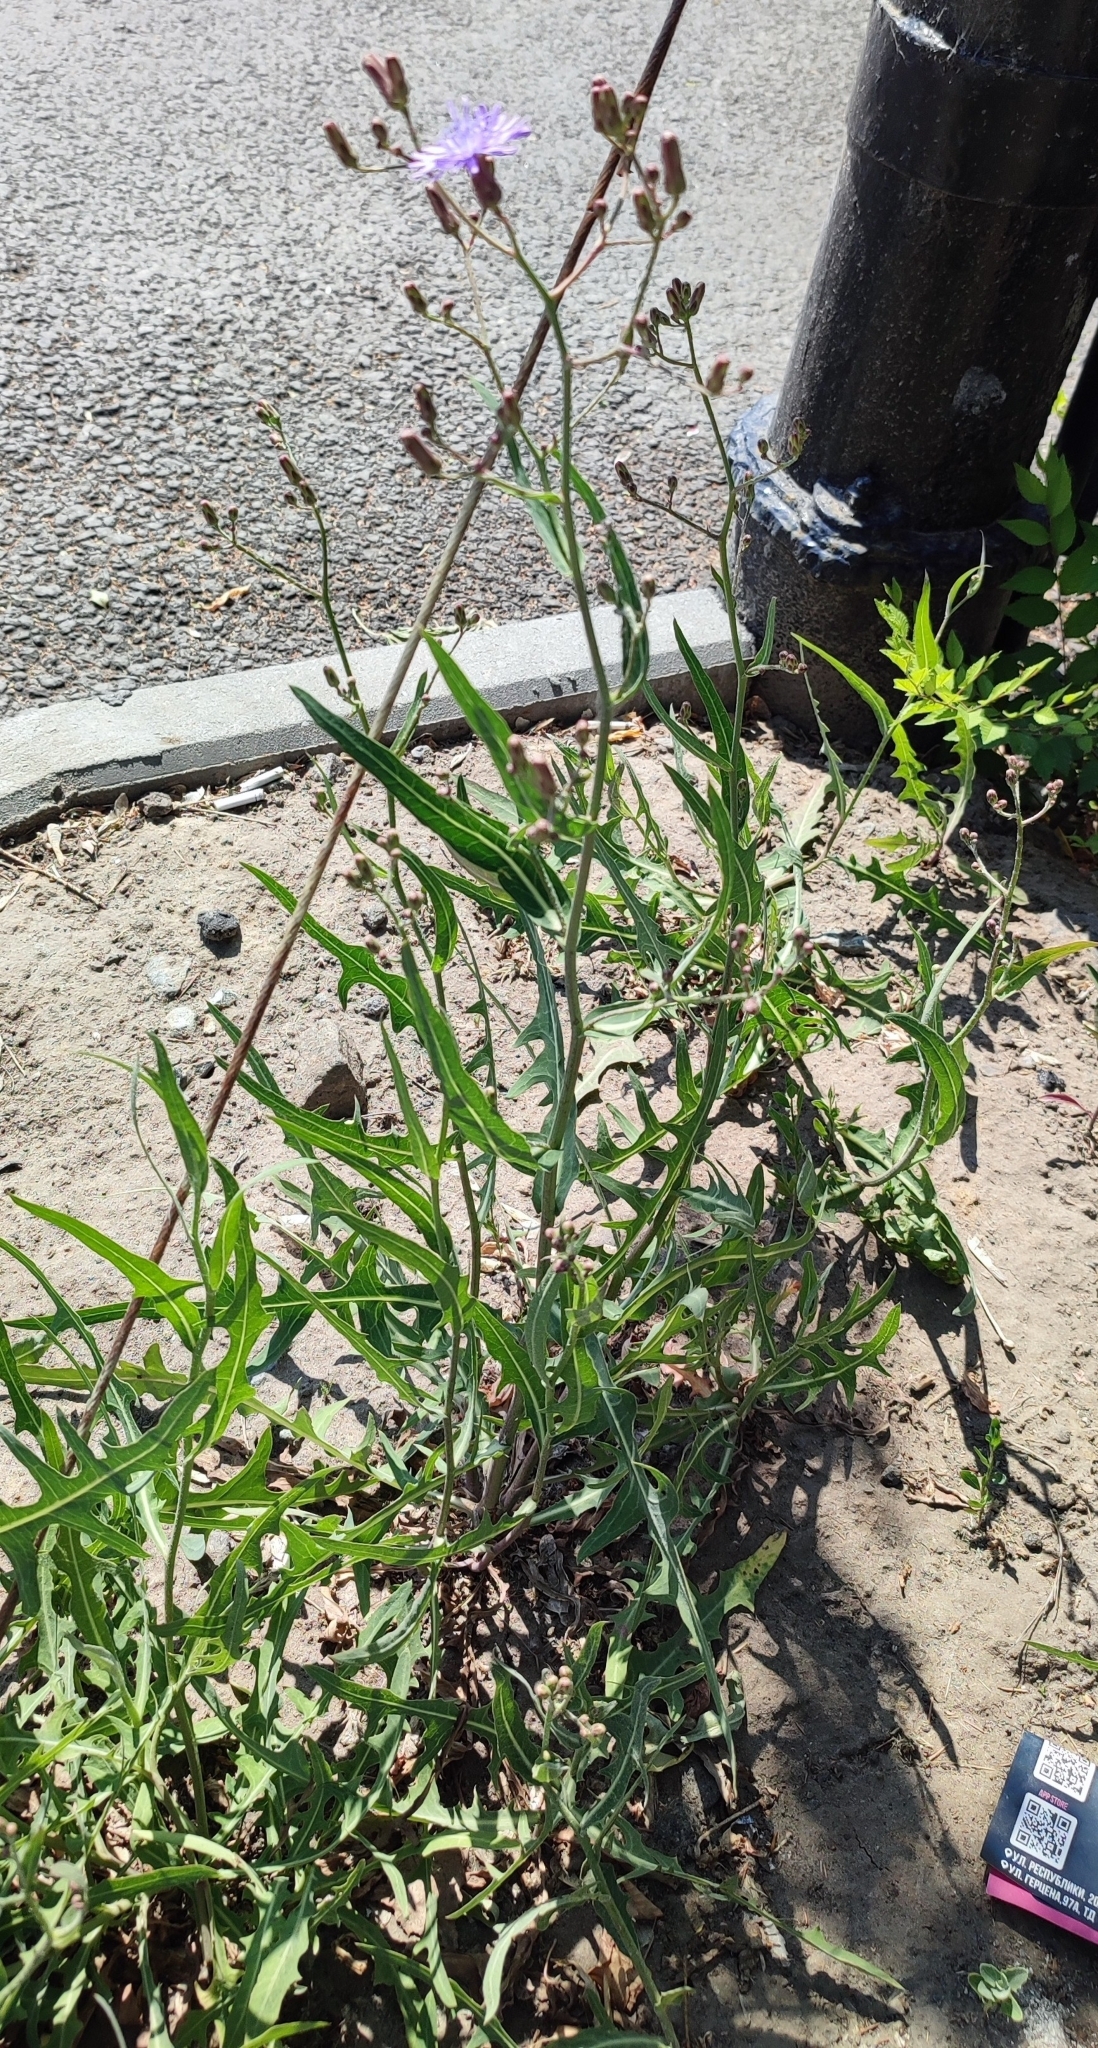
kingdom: Plantae
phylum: Tracheophyta
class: Magnoliopsida
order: Asterales
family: Asteraceae
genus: Lactuca
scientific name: Lactuca tatarica
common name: Blue lettuce
